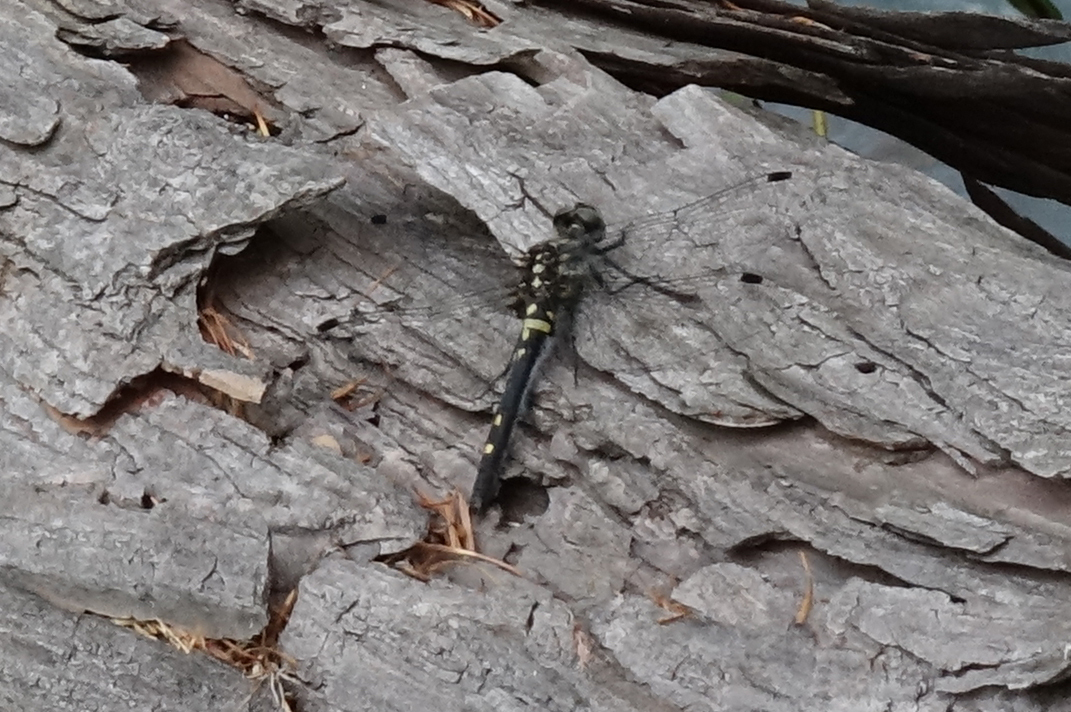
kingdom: Animalia
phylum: Arthropoda
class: Insecta
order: Odonata
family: Libellulidae
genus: Leucorrhinia
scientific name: Leucorrhinia orientalis
